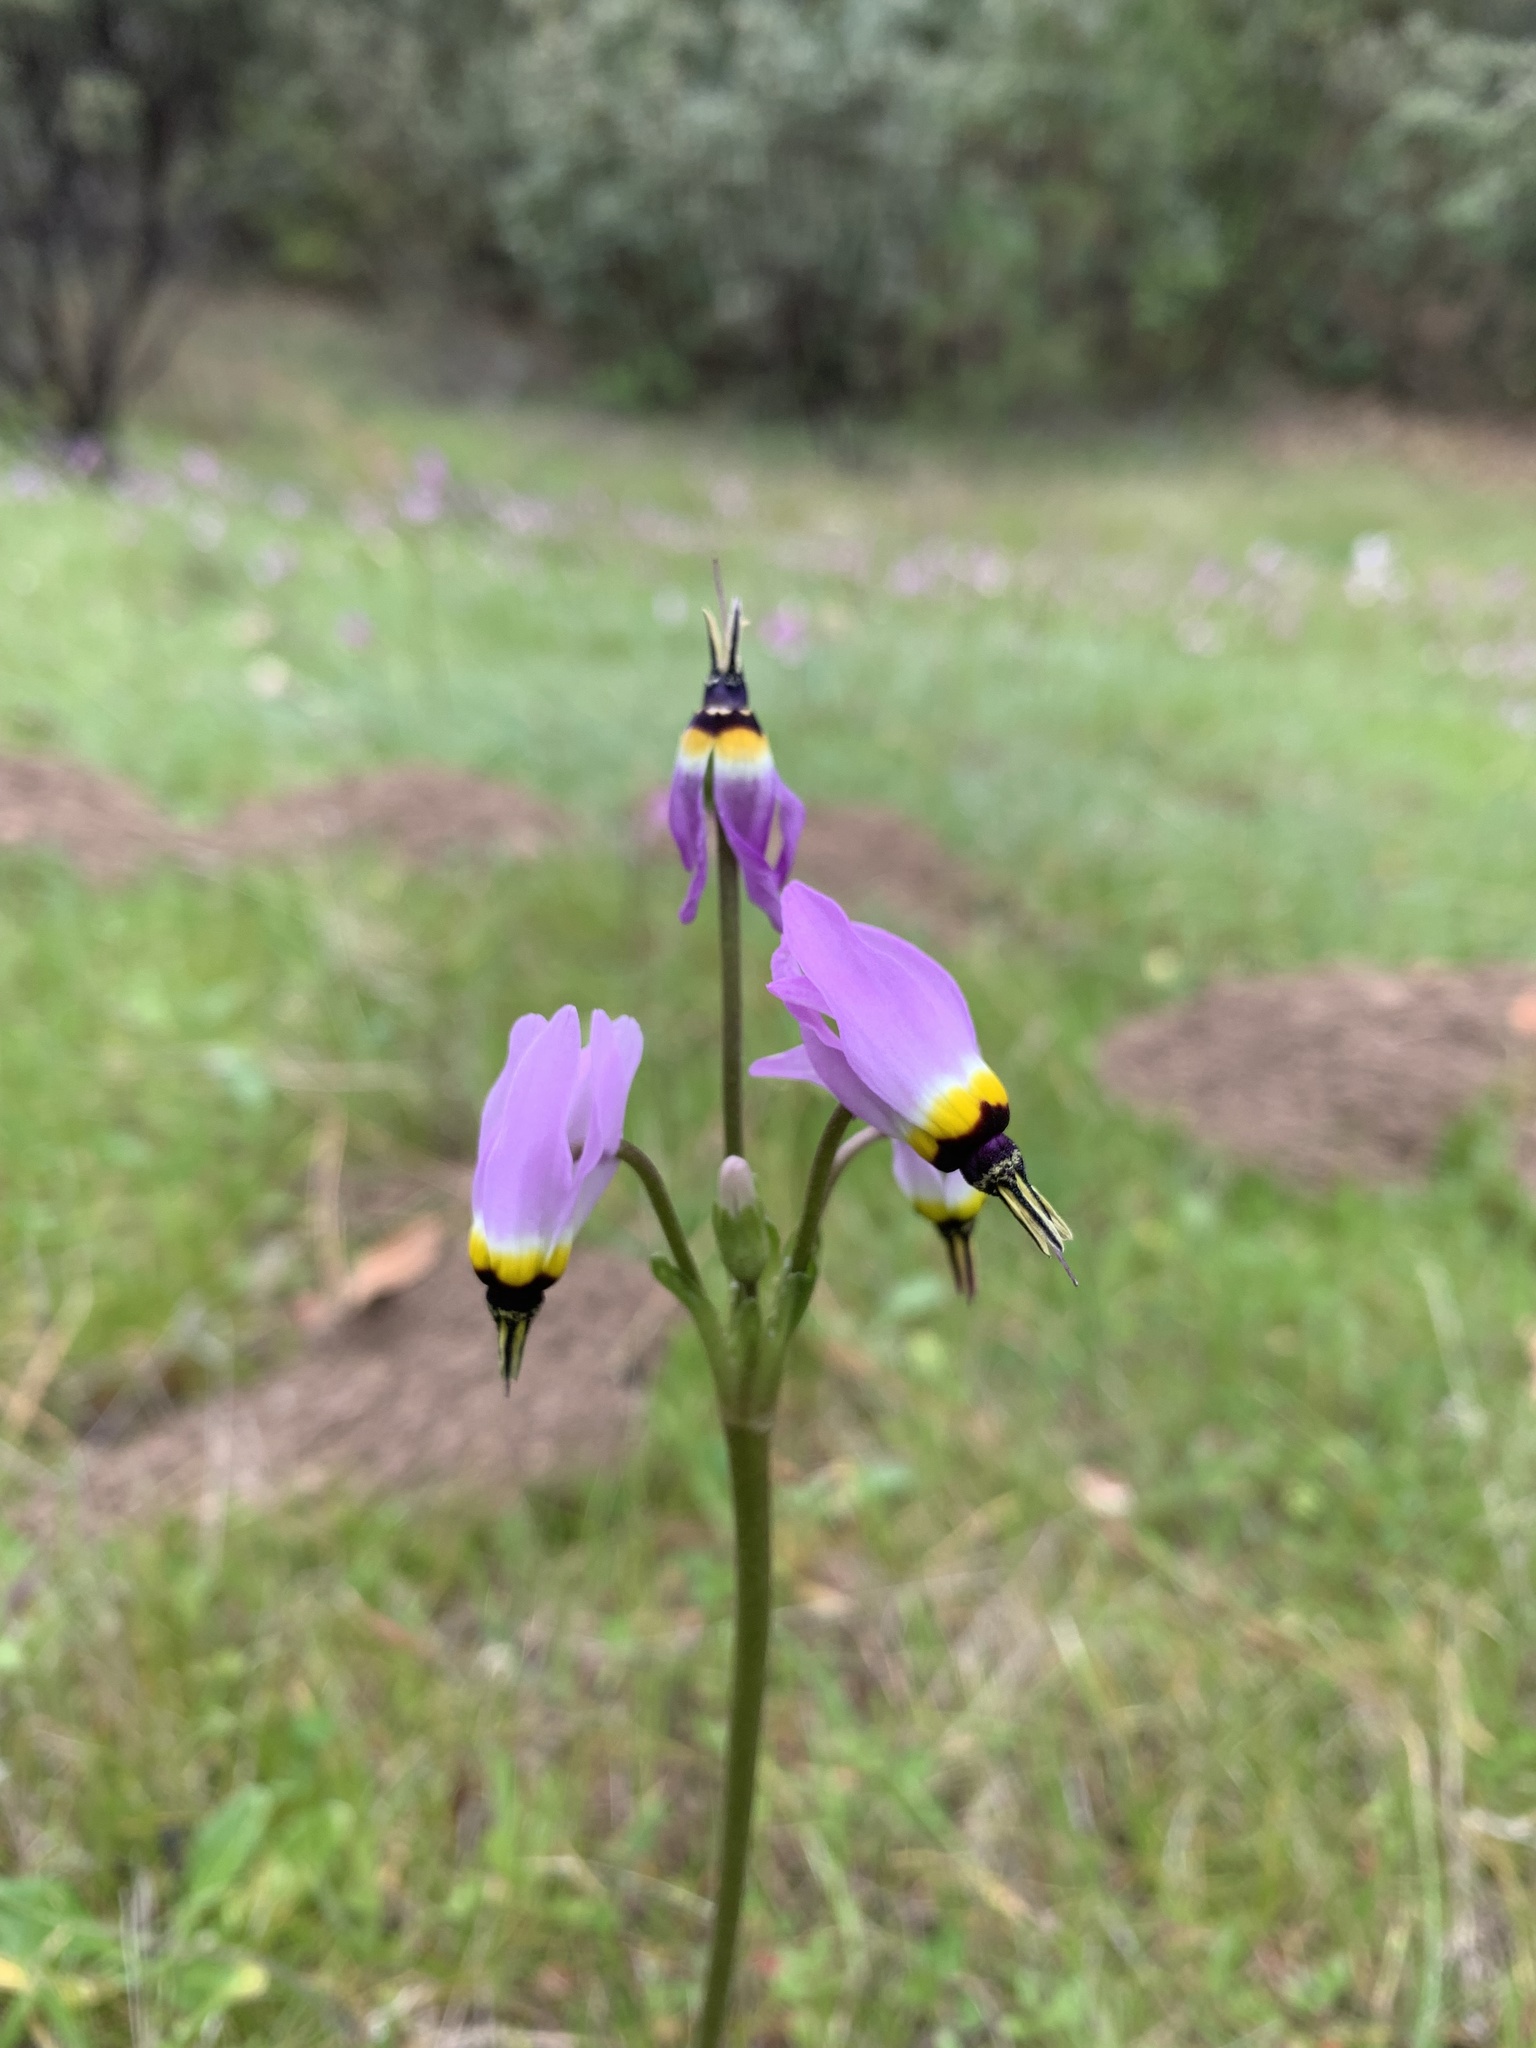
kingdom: Plantae
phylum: Tracheophyta
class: Magnoliopsida
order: Ericales
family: Primulaceae
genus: Dodecatheon
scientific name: Dodecatheon clevelandii
